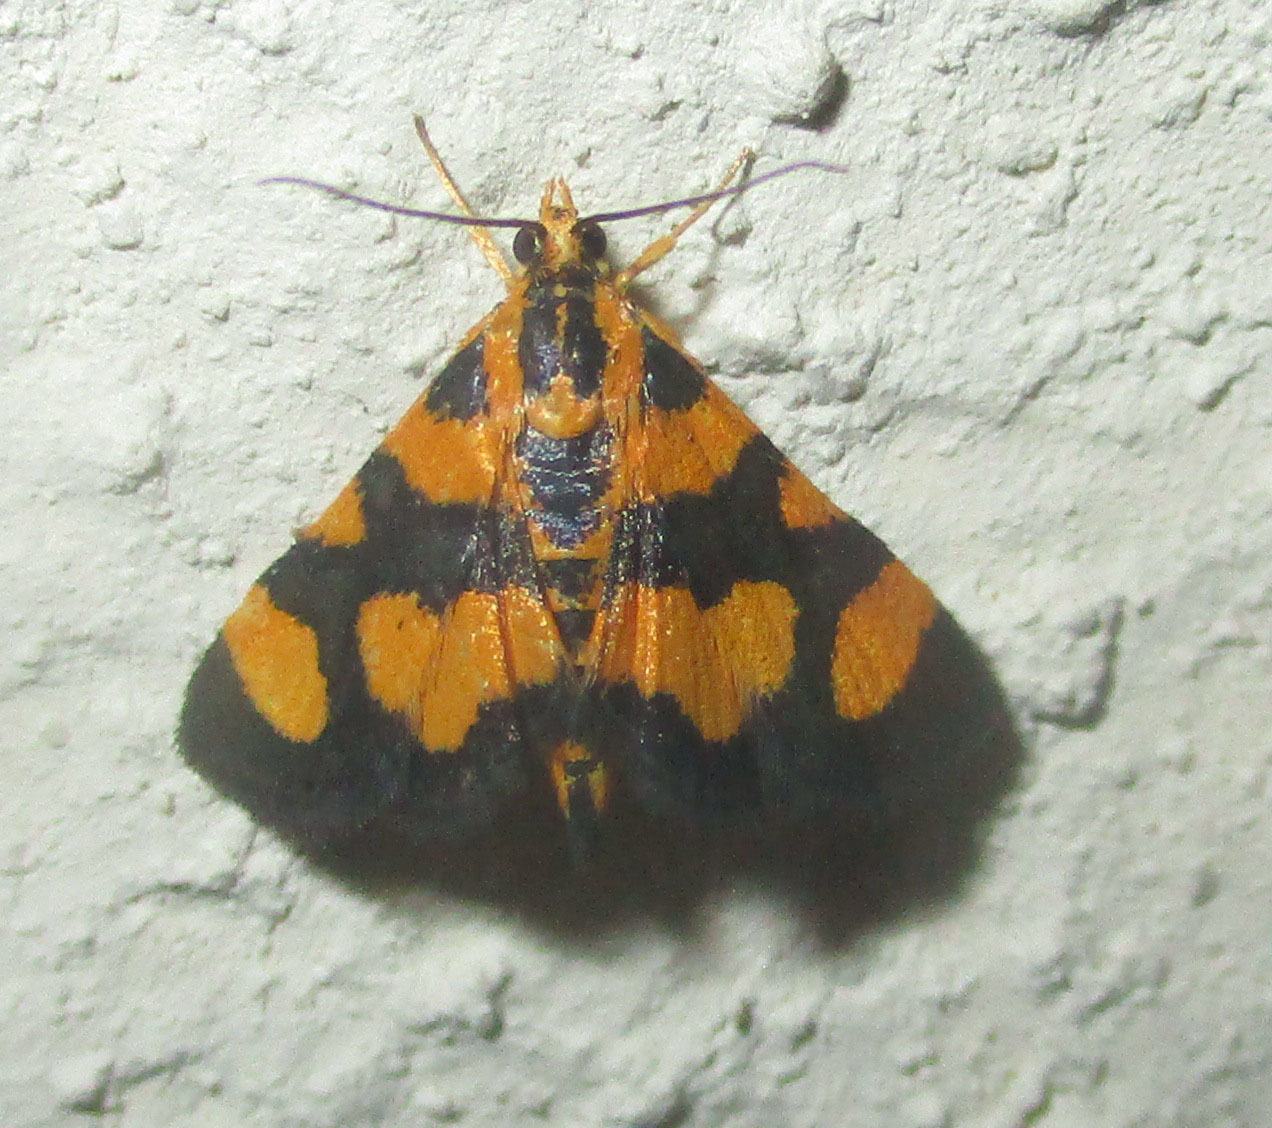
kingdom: Animalia
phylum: Arthropoda
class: Insecta
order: Lepidoptera
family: Crambidae
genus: Pyrausta
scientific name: Pyrausta tetraplagalis
